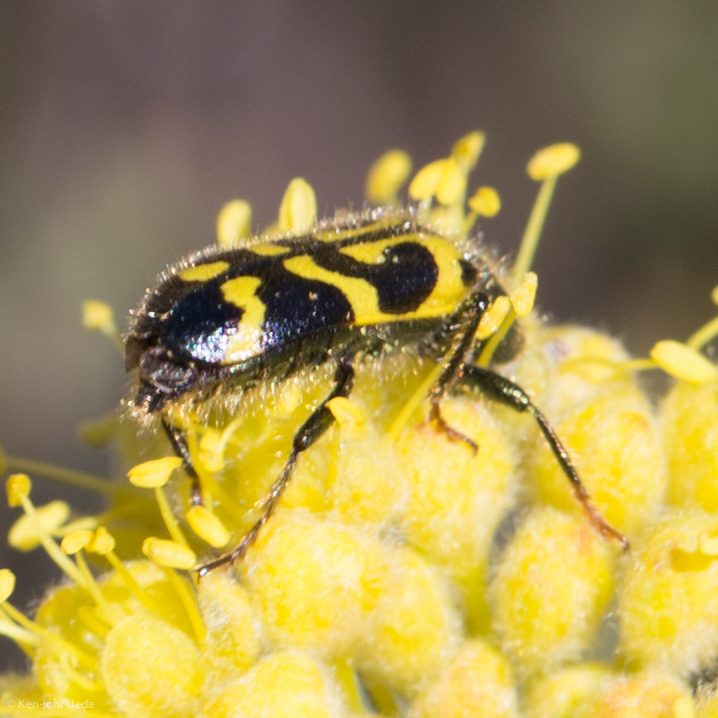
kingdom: Animalia
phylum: Arthropoda
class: Insecta
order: Coleoptera
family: Cleridae
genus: Trichodes
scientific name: Trichodes ornatus
